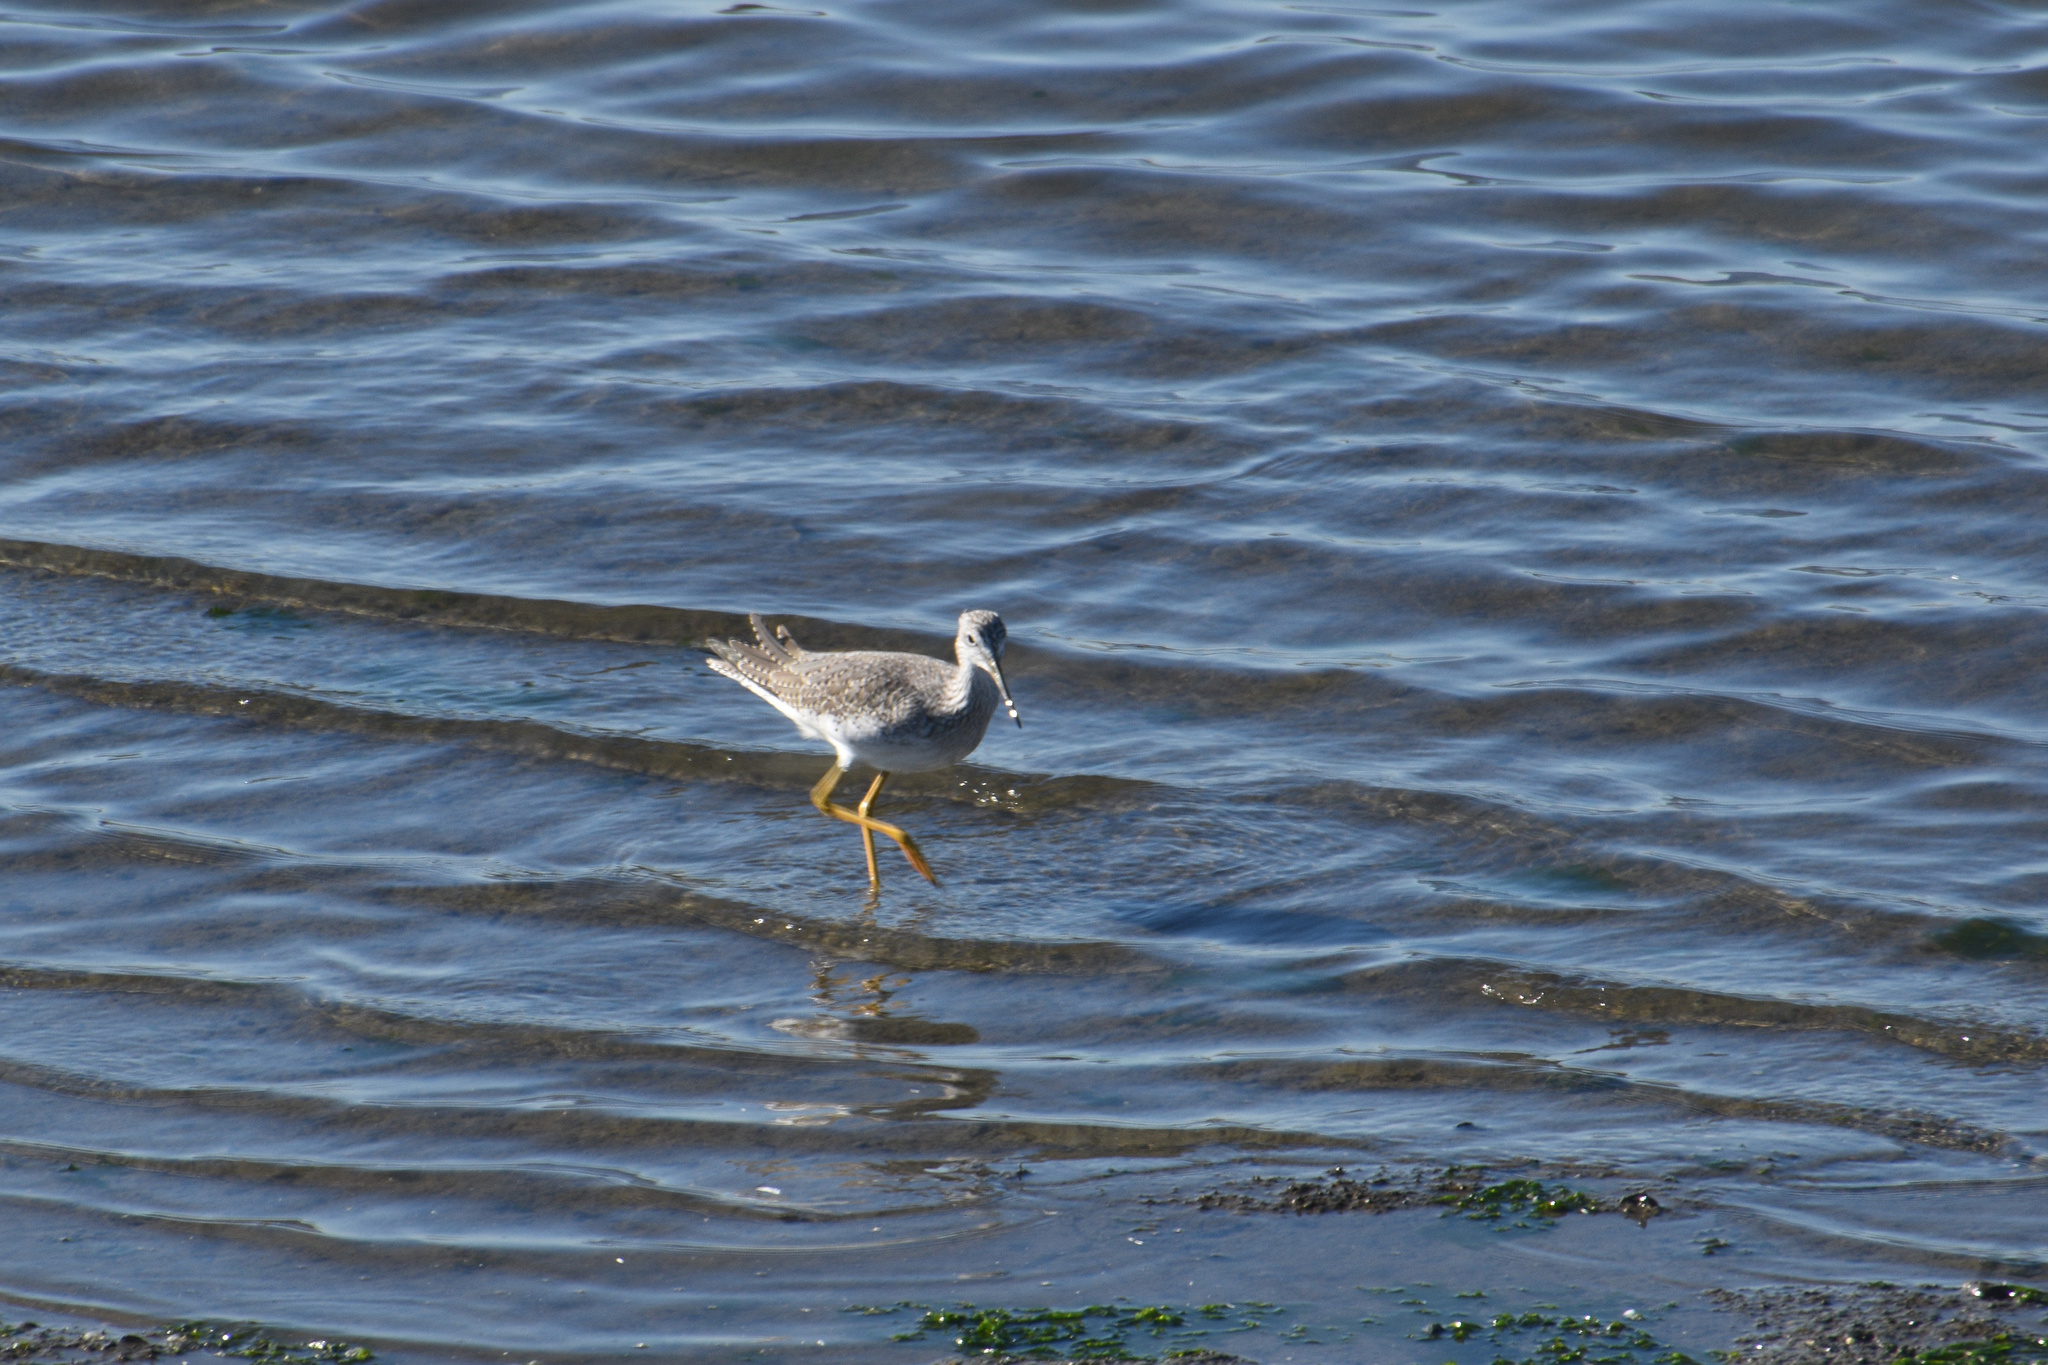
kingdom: Animalia
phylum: Chordata
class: Aves
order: Charadriiformes
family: Scolopacidae
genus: Tringa
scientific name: Tringa melanoleuca
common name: Greater yellowlegs
